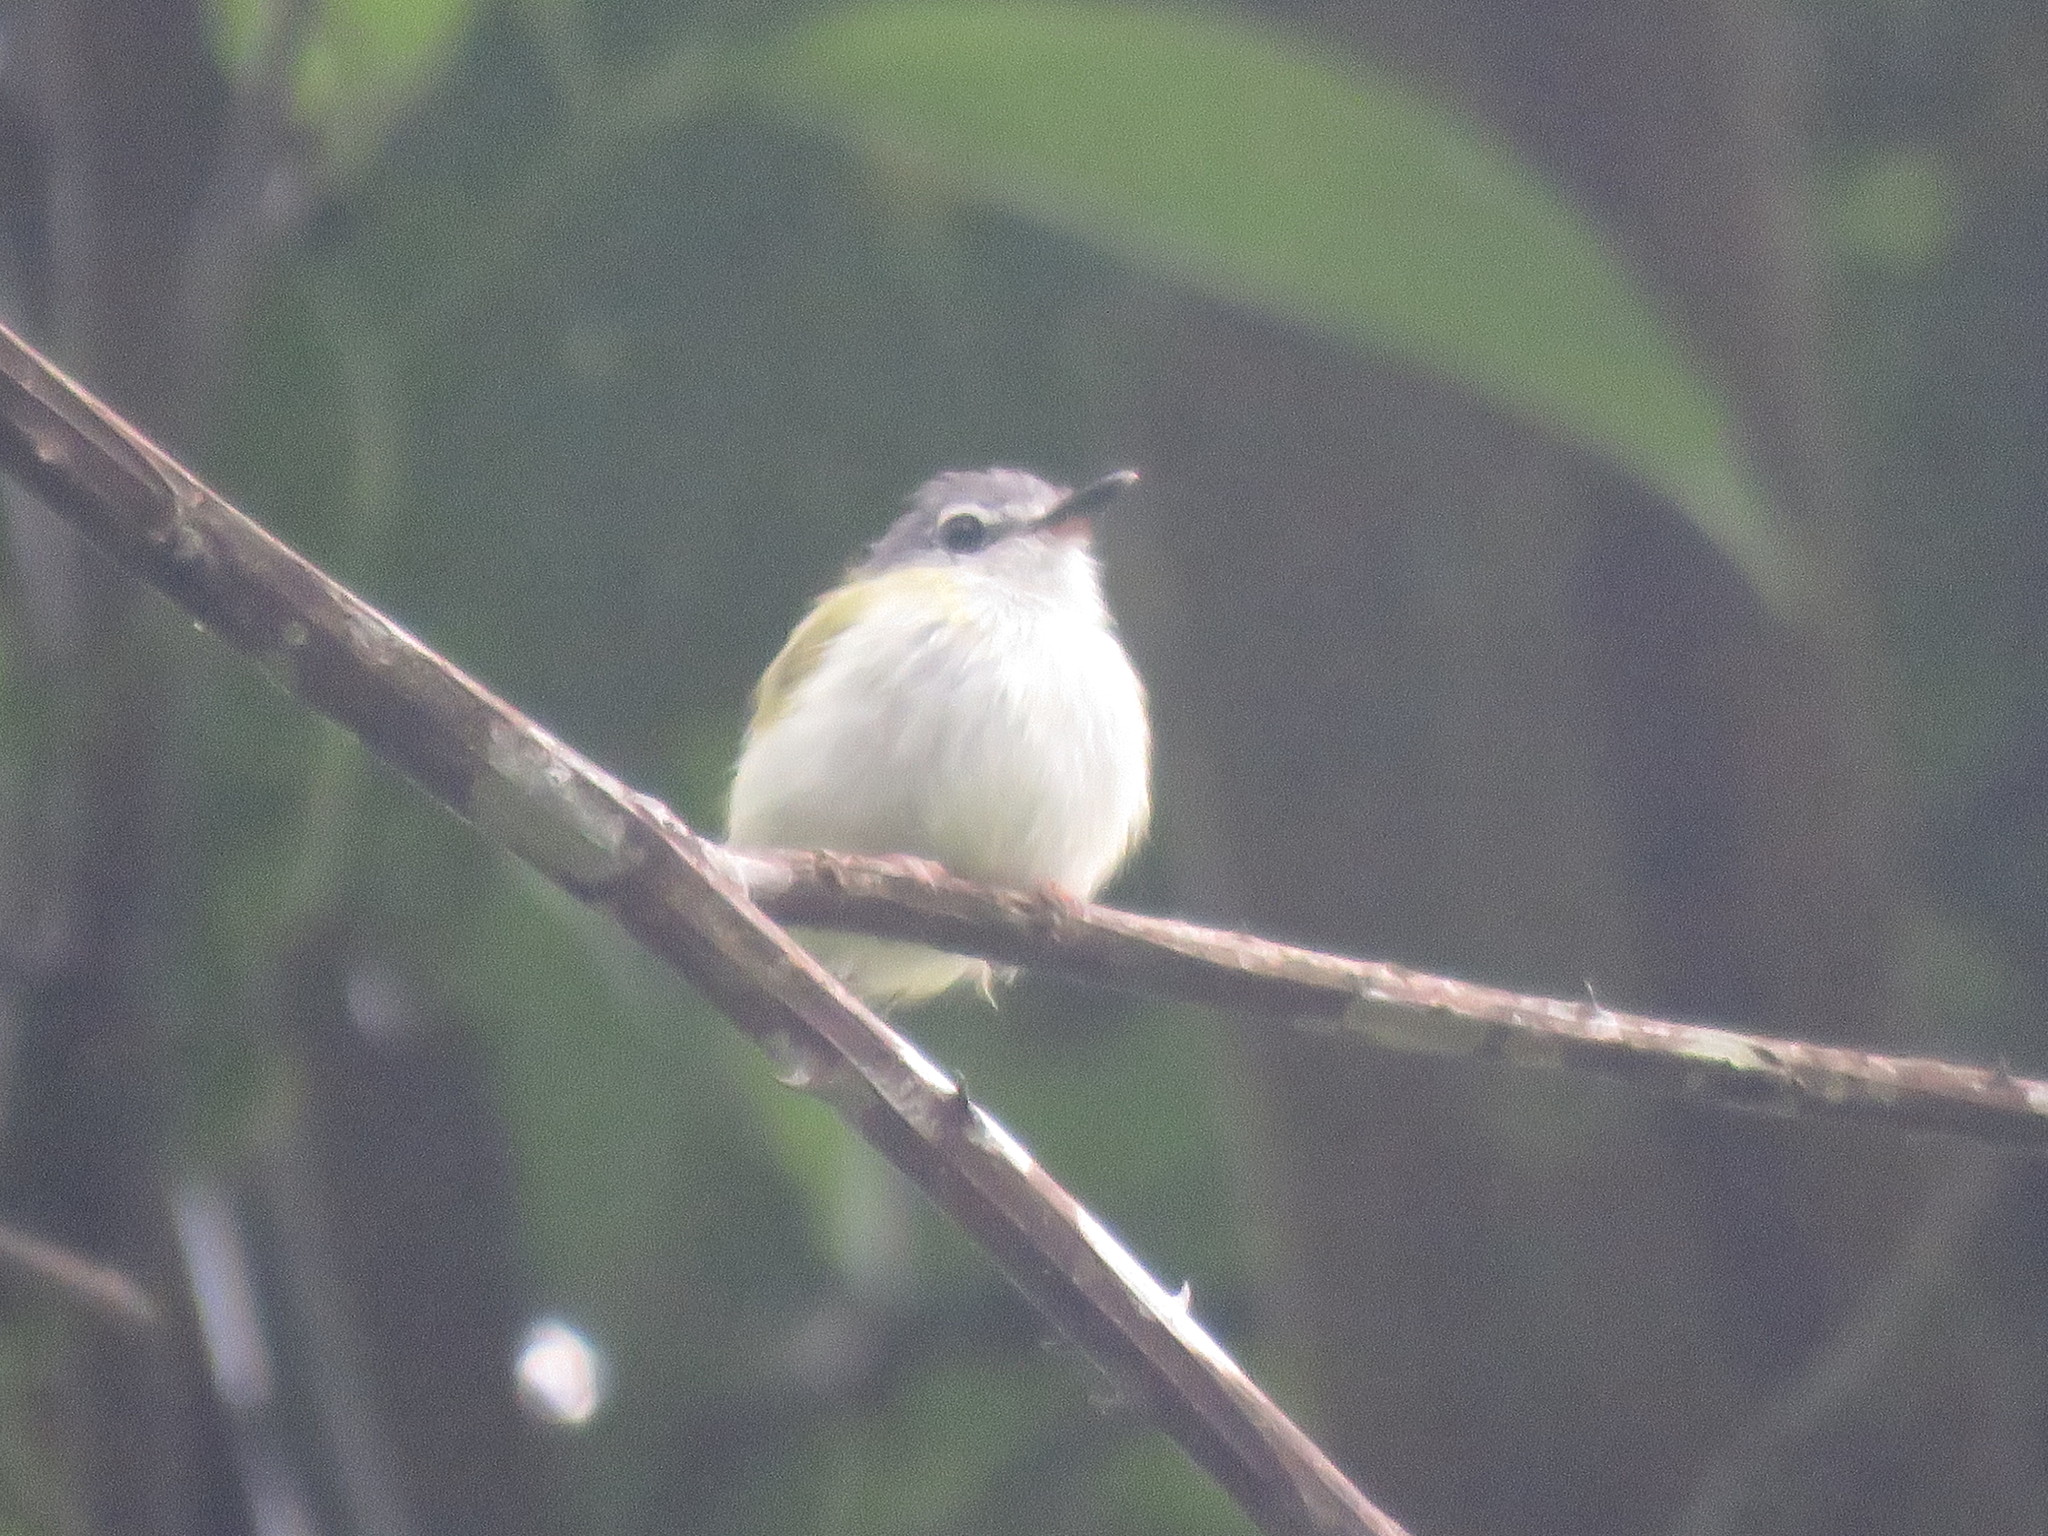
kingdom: Animalia
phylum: Chordata
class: Aves
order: Passeriformes
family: Tyrannidae
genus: Myiornis
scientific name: Myiornis ecaudatus
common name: Short-tailed pygmy tyrant
